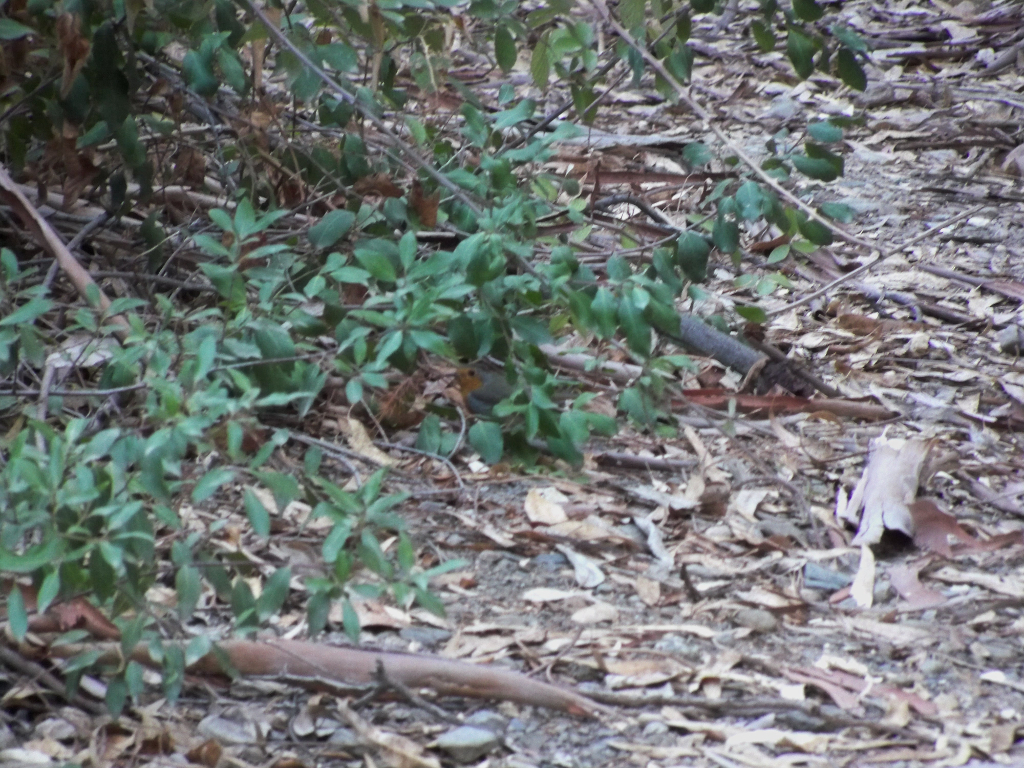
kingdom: Animalia
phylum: Chordata
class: Aves
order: Passeriformes
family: Muscicapidae
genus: Erithacus
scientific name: Erithacus rubecula
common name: European robin
